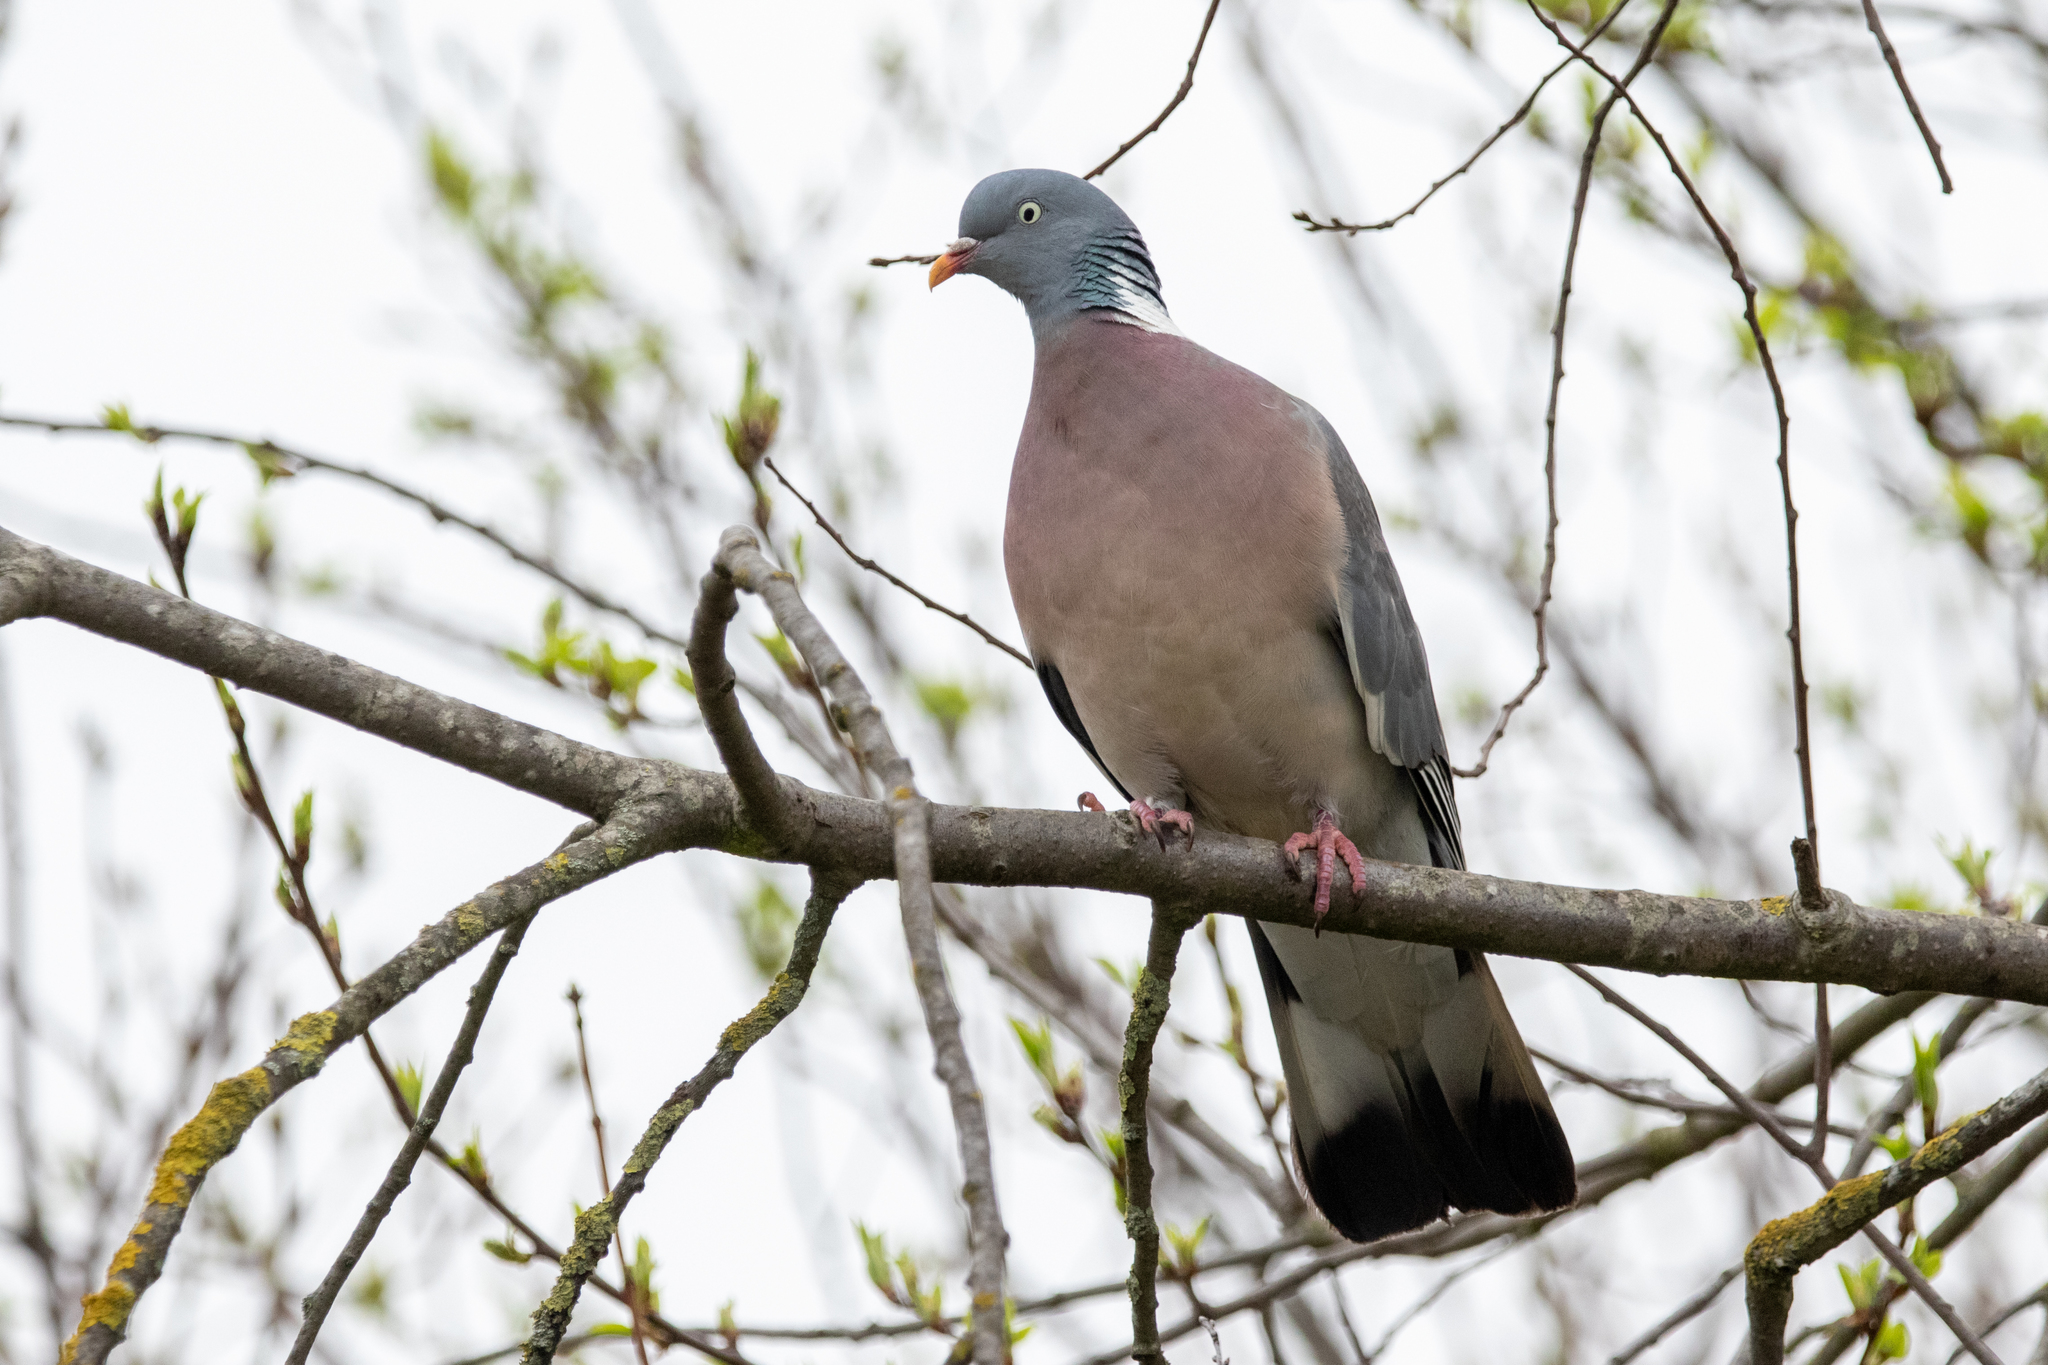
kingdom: Animalia
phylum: Chordata
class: Aves
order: Columbiformes
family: Columbidae
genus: Columba
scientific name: Columba palumbus
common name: Common wood pigeon
